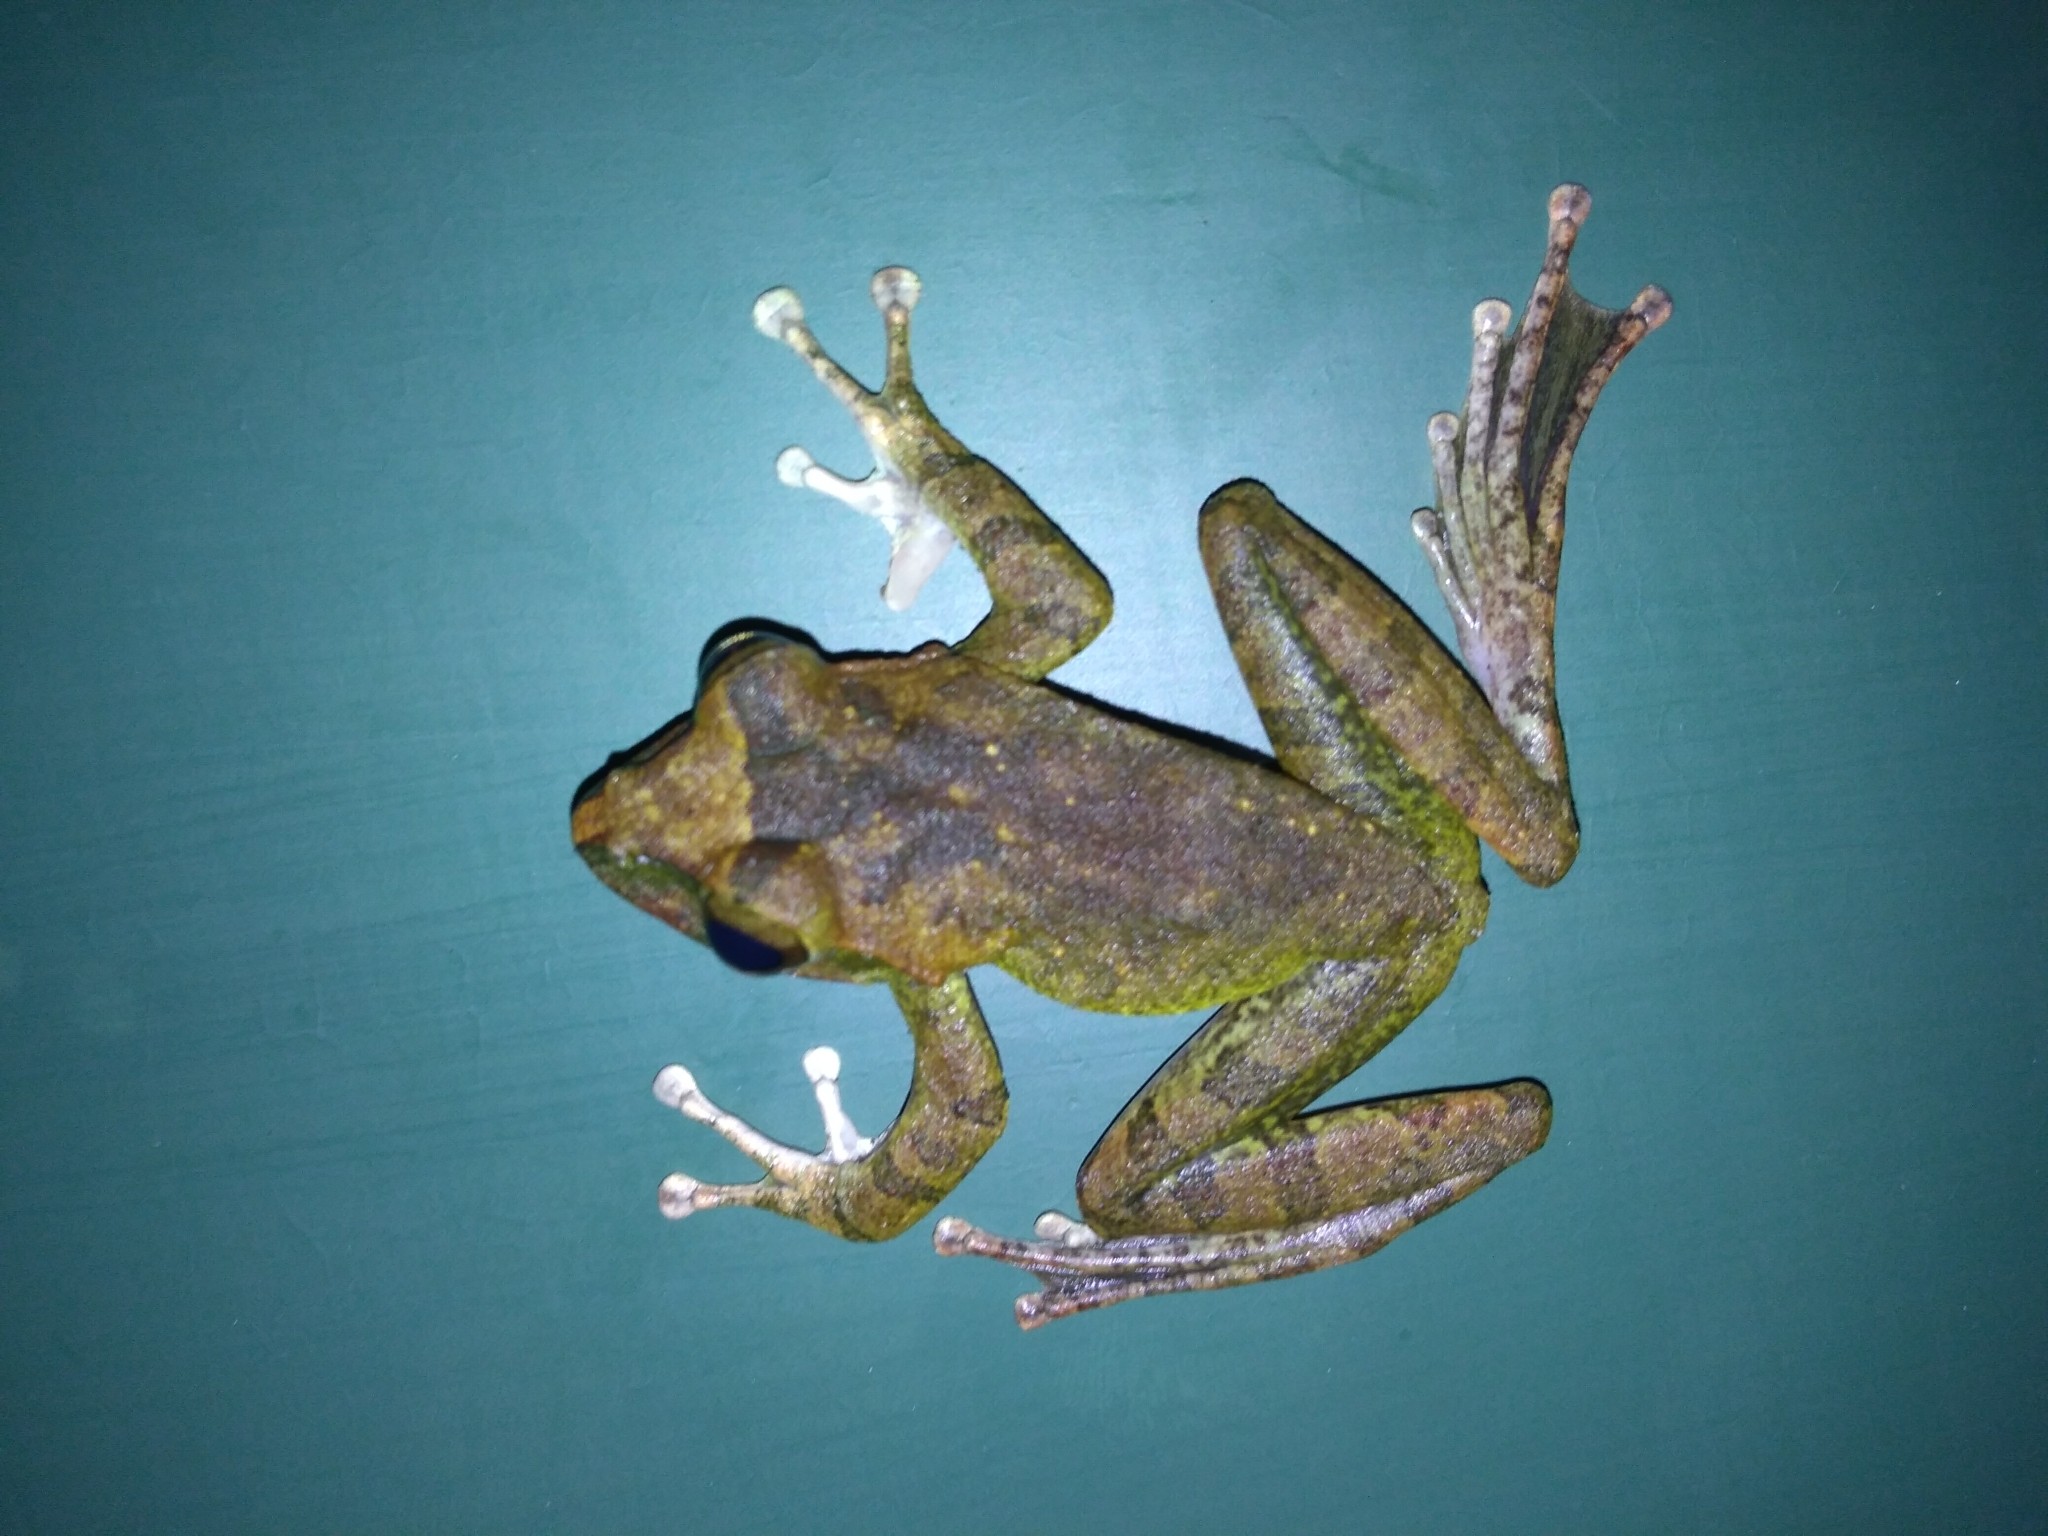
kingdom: Animalia
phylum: Chordata
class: Amphibia
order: Anura
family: Rhacophoridae
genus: Buergeria
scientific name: Buergeria robusta
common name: Brown treefrog
